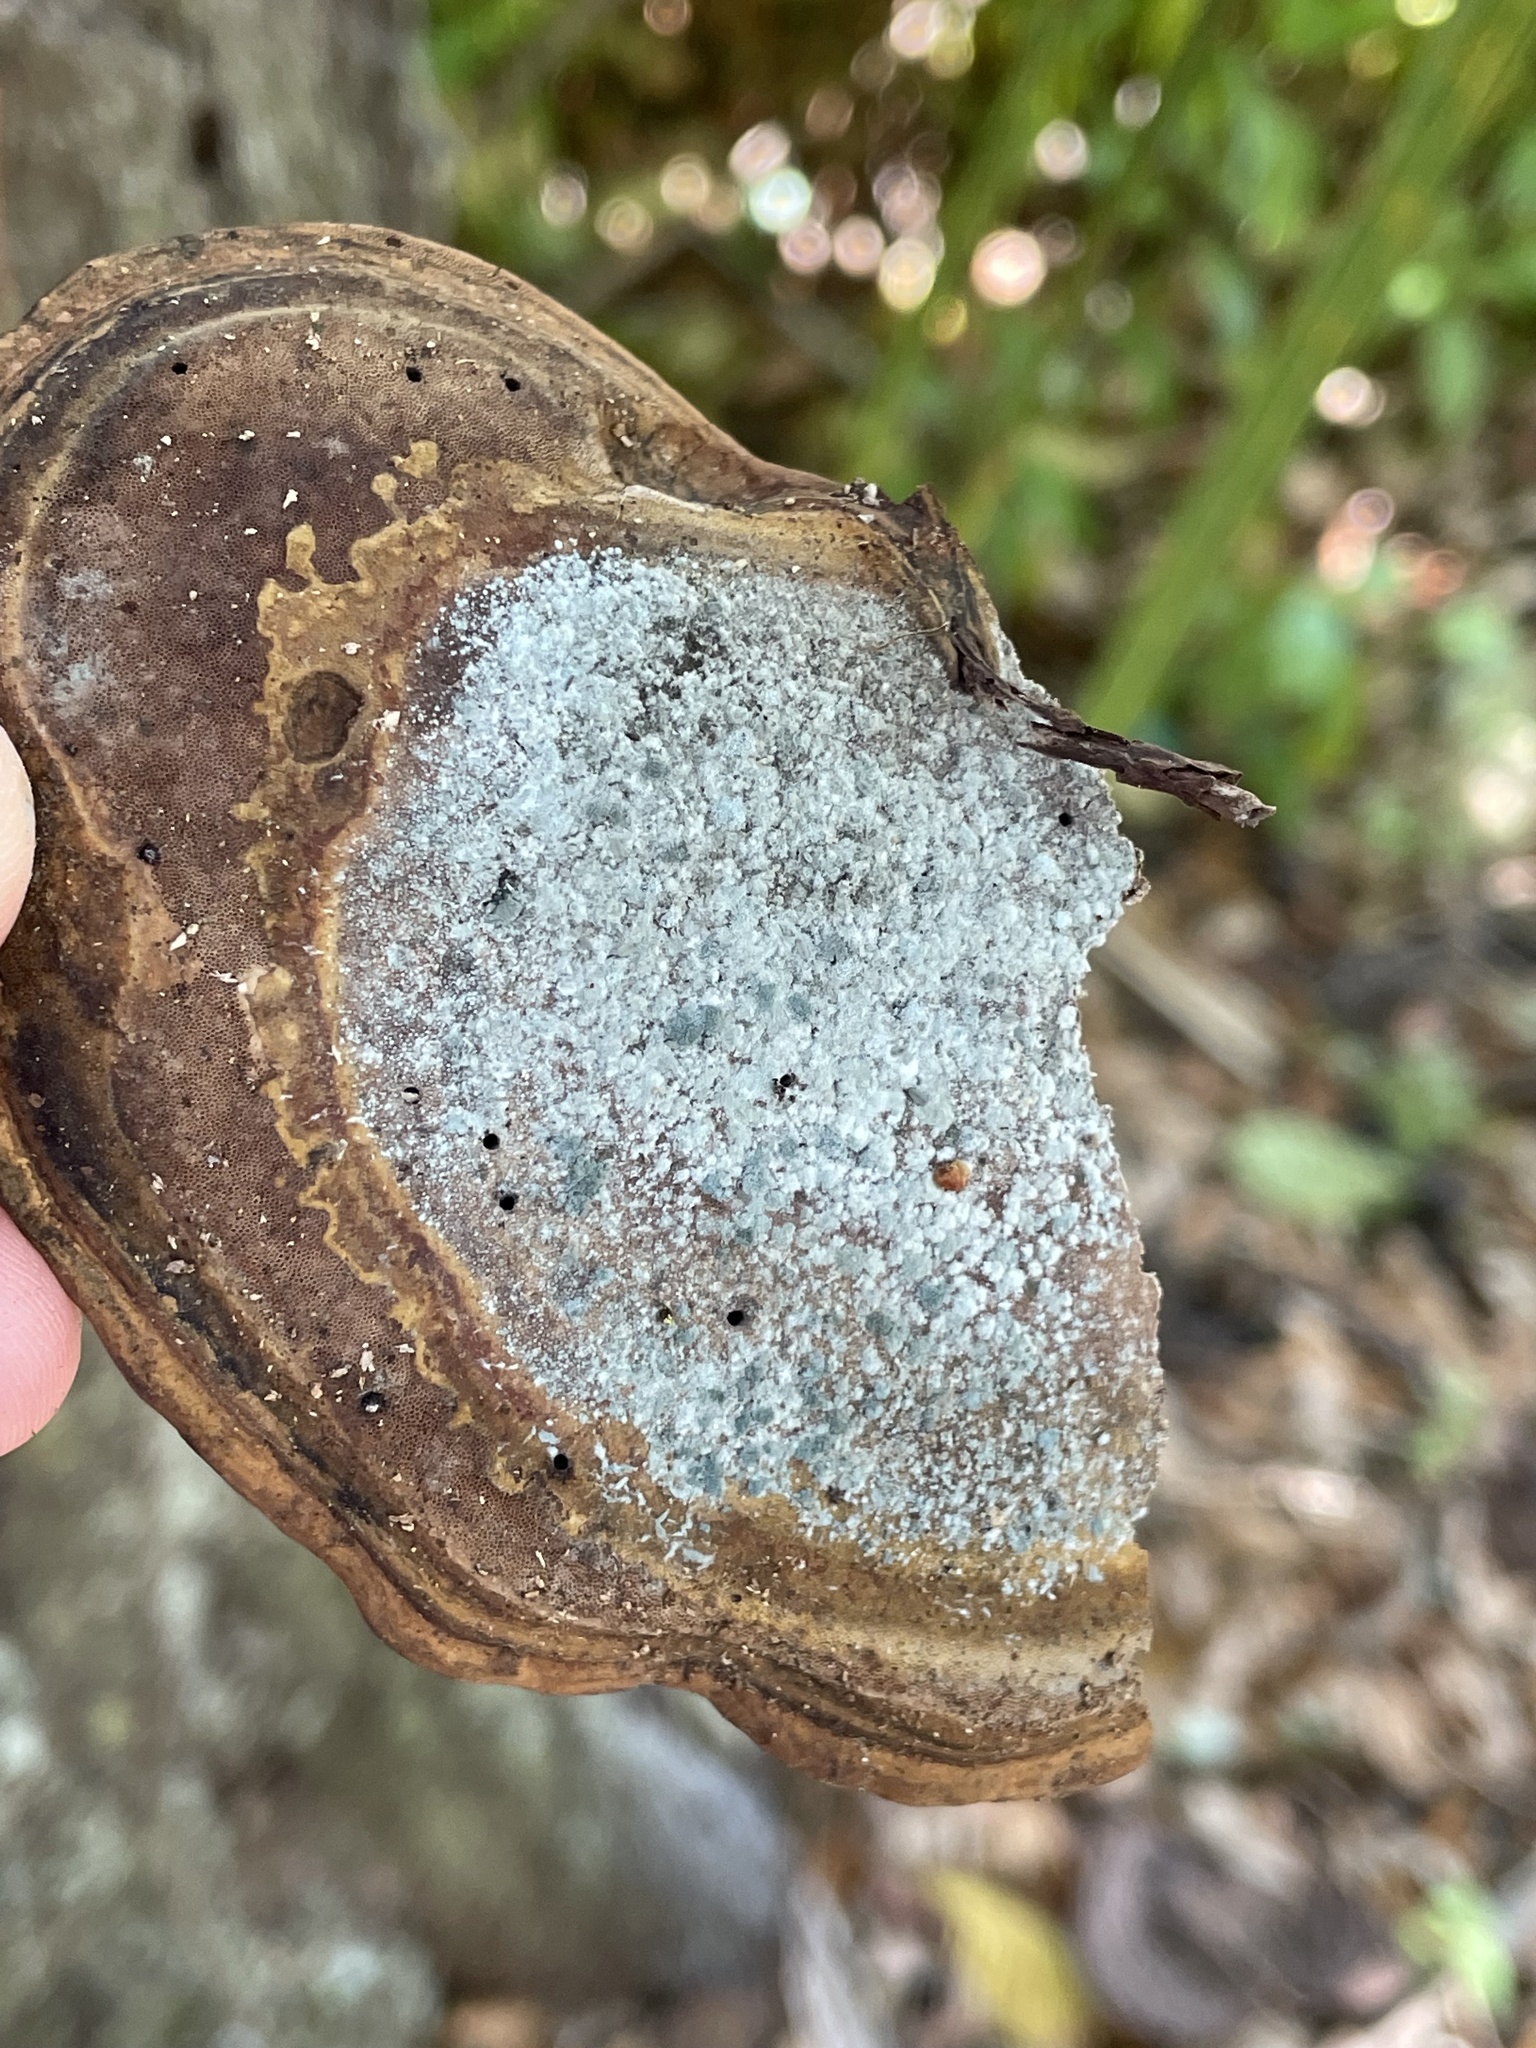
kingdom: Fungi
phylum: Ascomycota
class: Sordariomycetes
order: Hypocreales
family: Hypocreaceae
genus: Trichoderma
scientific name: Trichoderma harzianum
